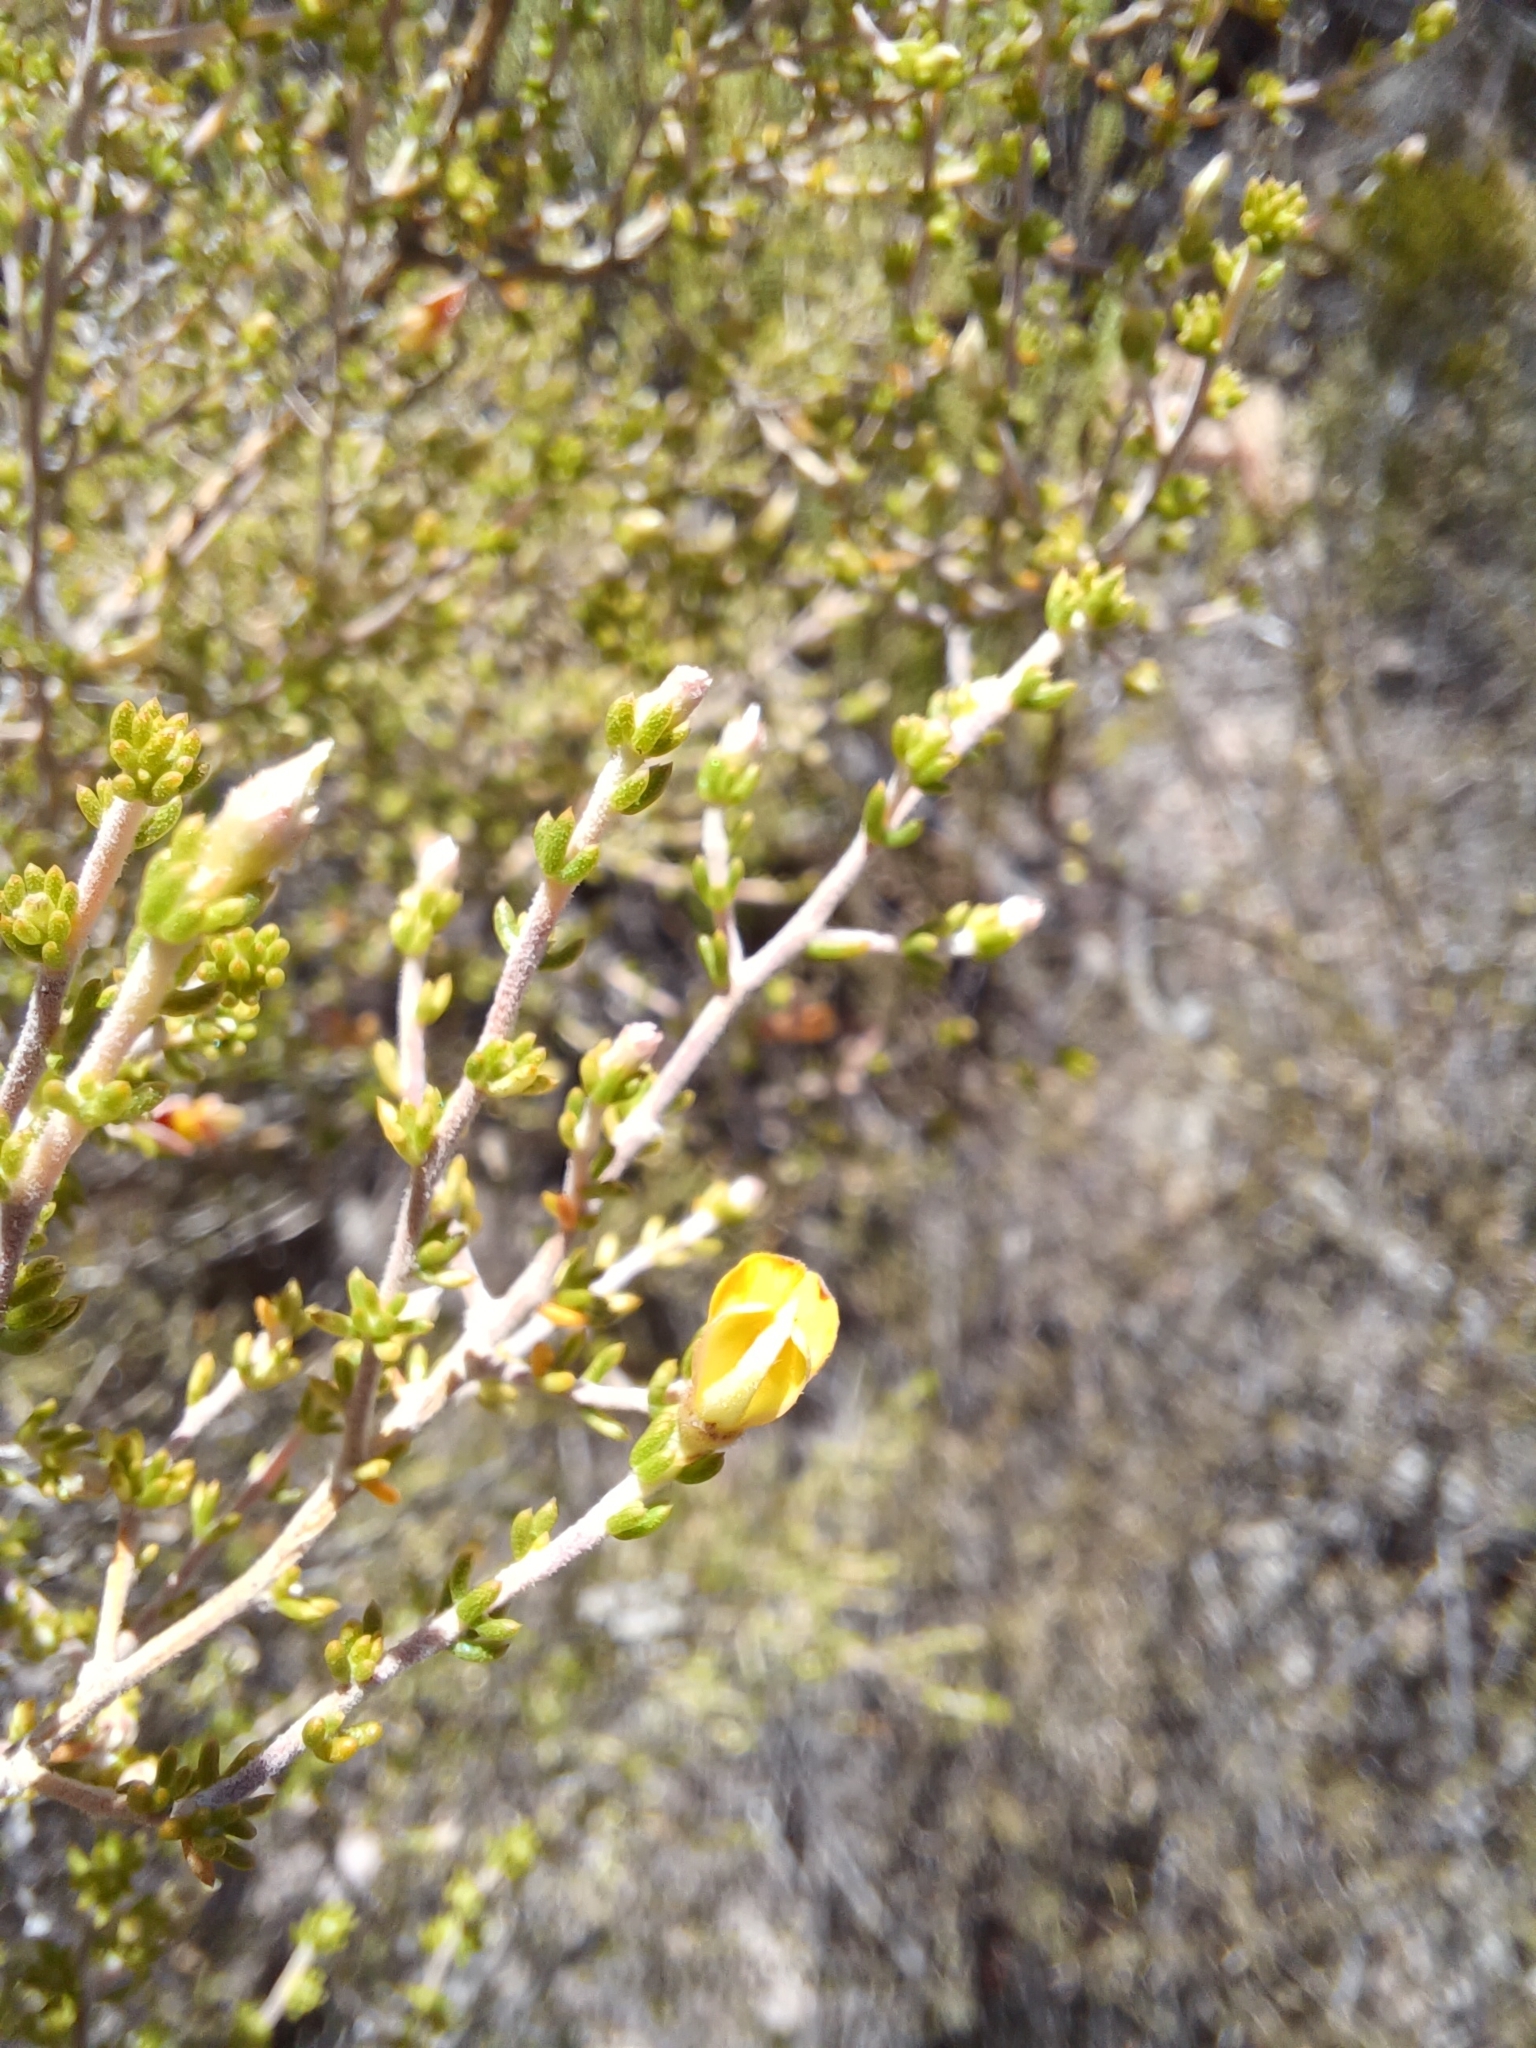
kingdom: Plantae
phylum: Tracheophyta
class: Magnoliopsida
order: Fabales
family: Fabaceae
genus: Aspalathus
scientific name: Aspalathus pilantha
